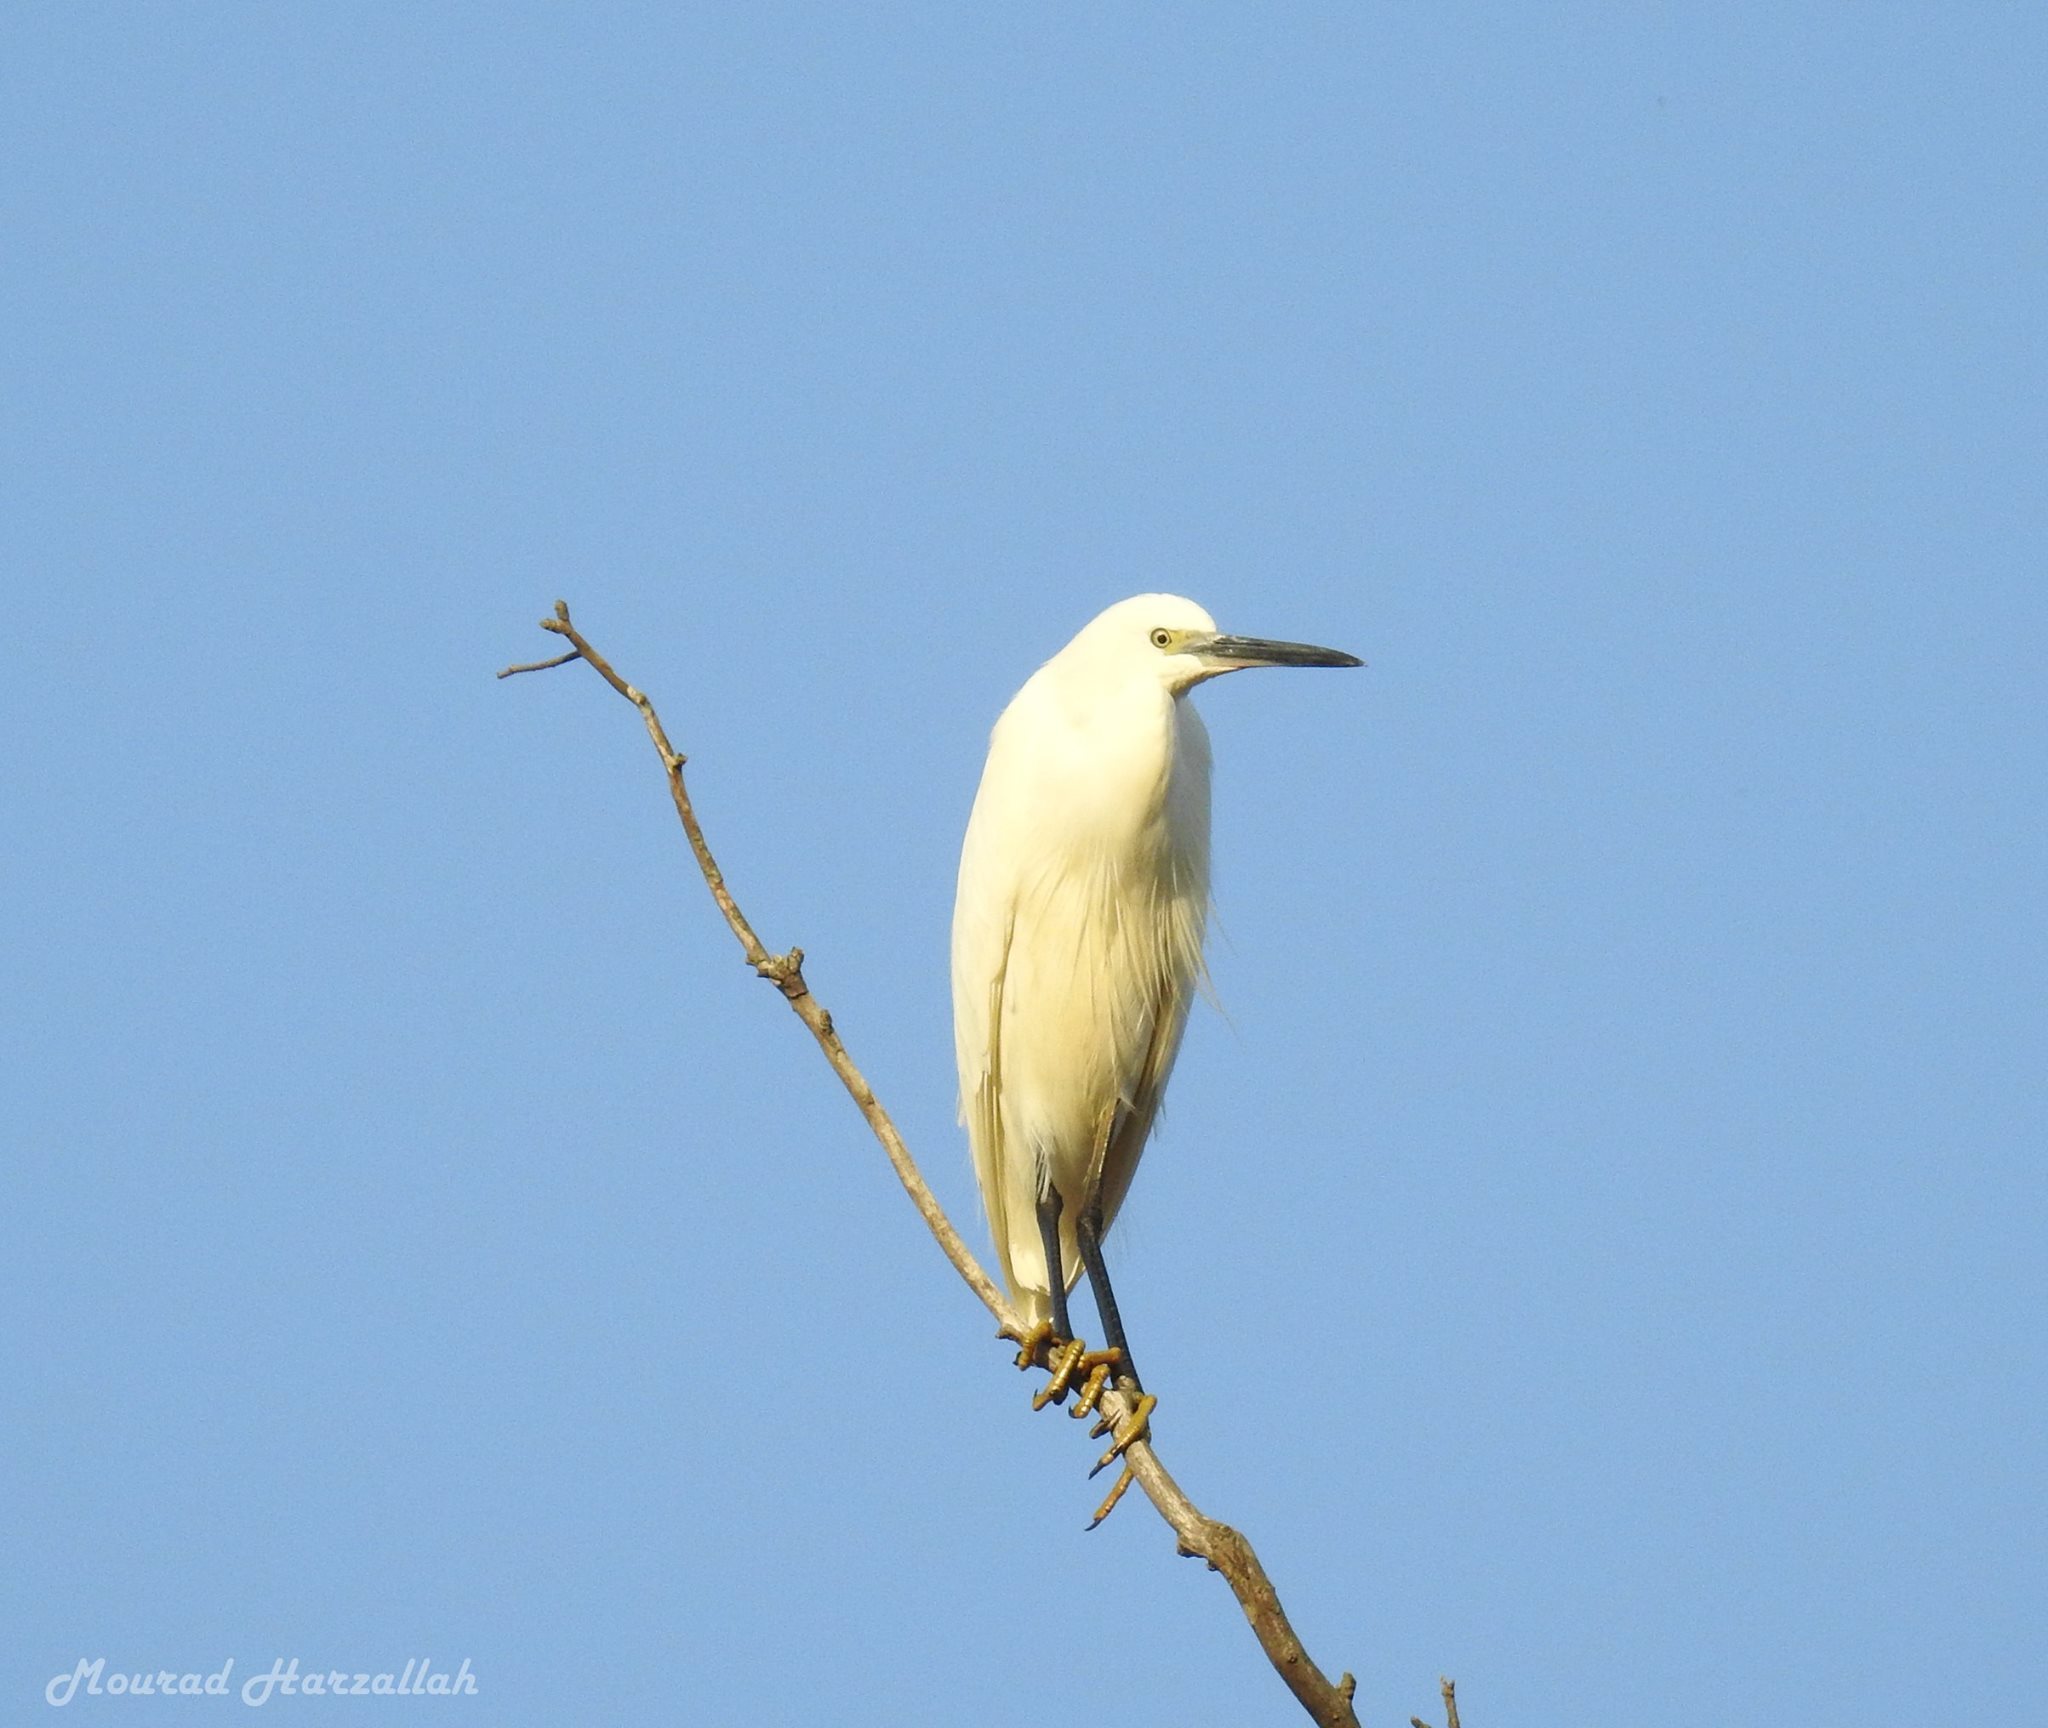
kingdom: Animalia
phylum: Chordata
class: Aves
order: Pelecaniformes
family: Ardeidae
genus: Egretta
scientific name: Egretta garzetta
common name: Little egret
